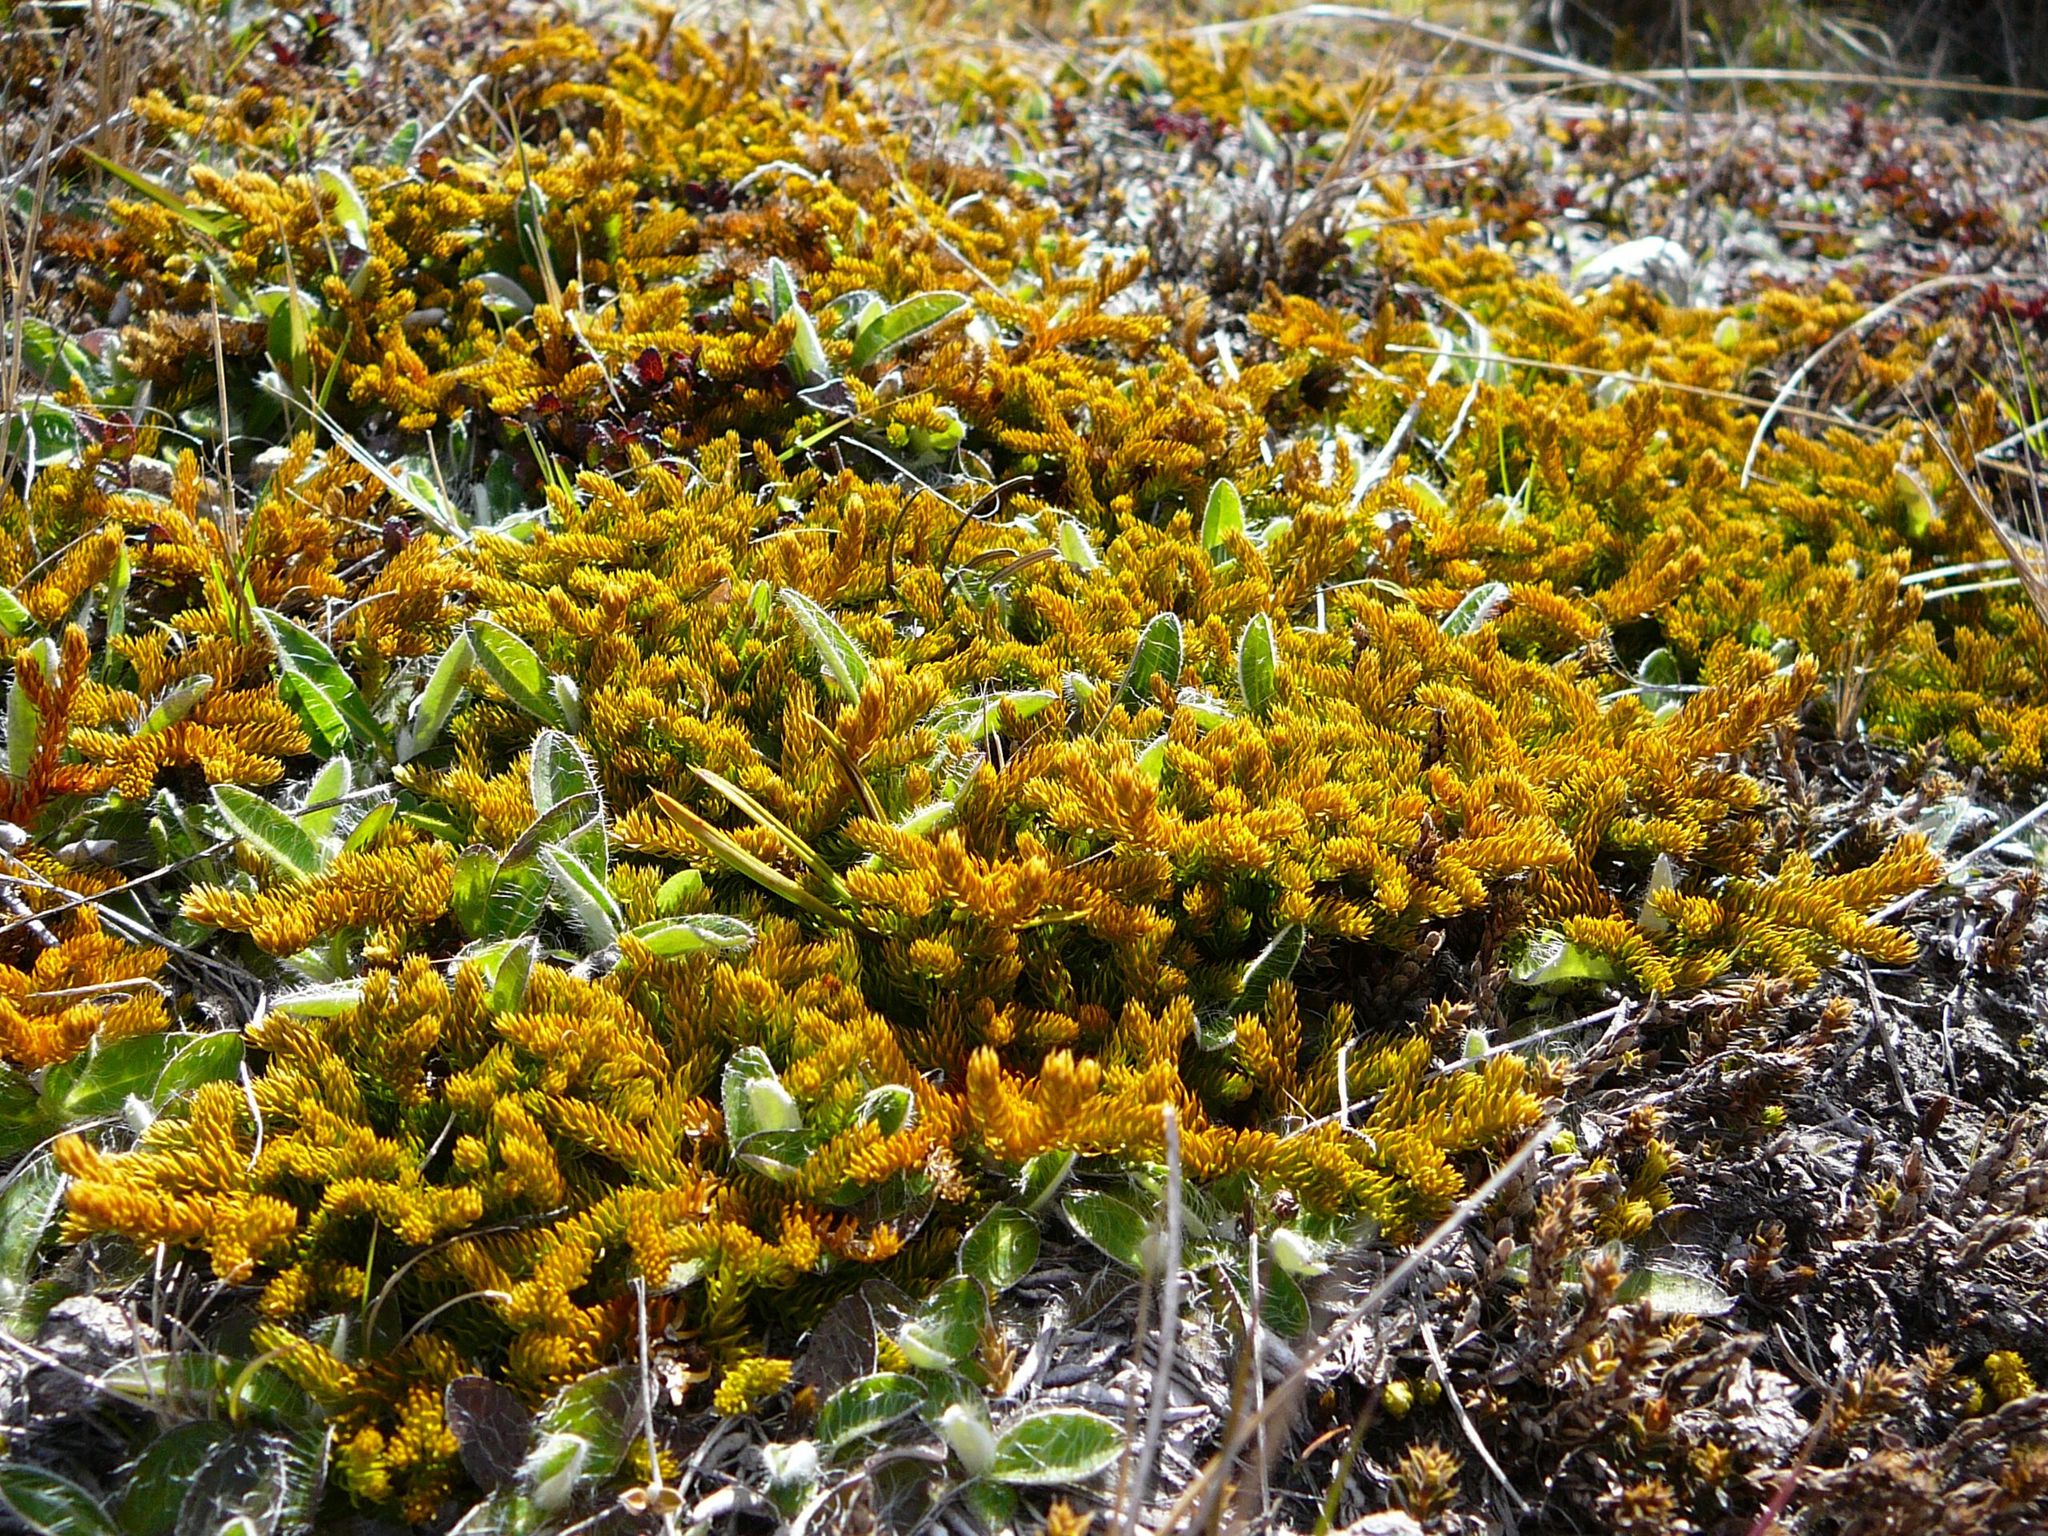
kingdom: Plantae
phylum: Tracheophyta
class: Lycopodiopsida
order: Lycopodiales
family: Lycopodiaceae
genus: Austrolycopodium
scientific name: Austrolycopodium fastigiatum
